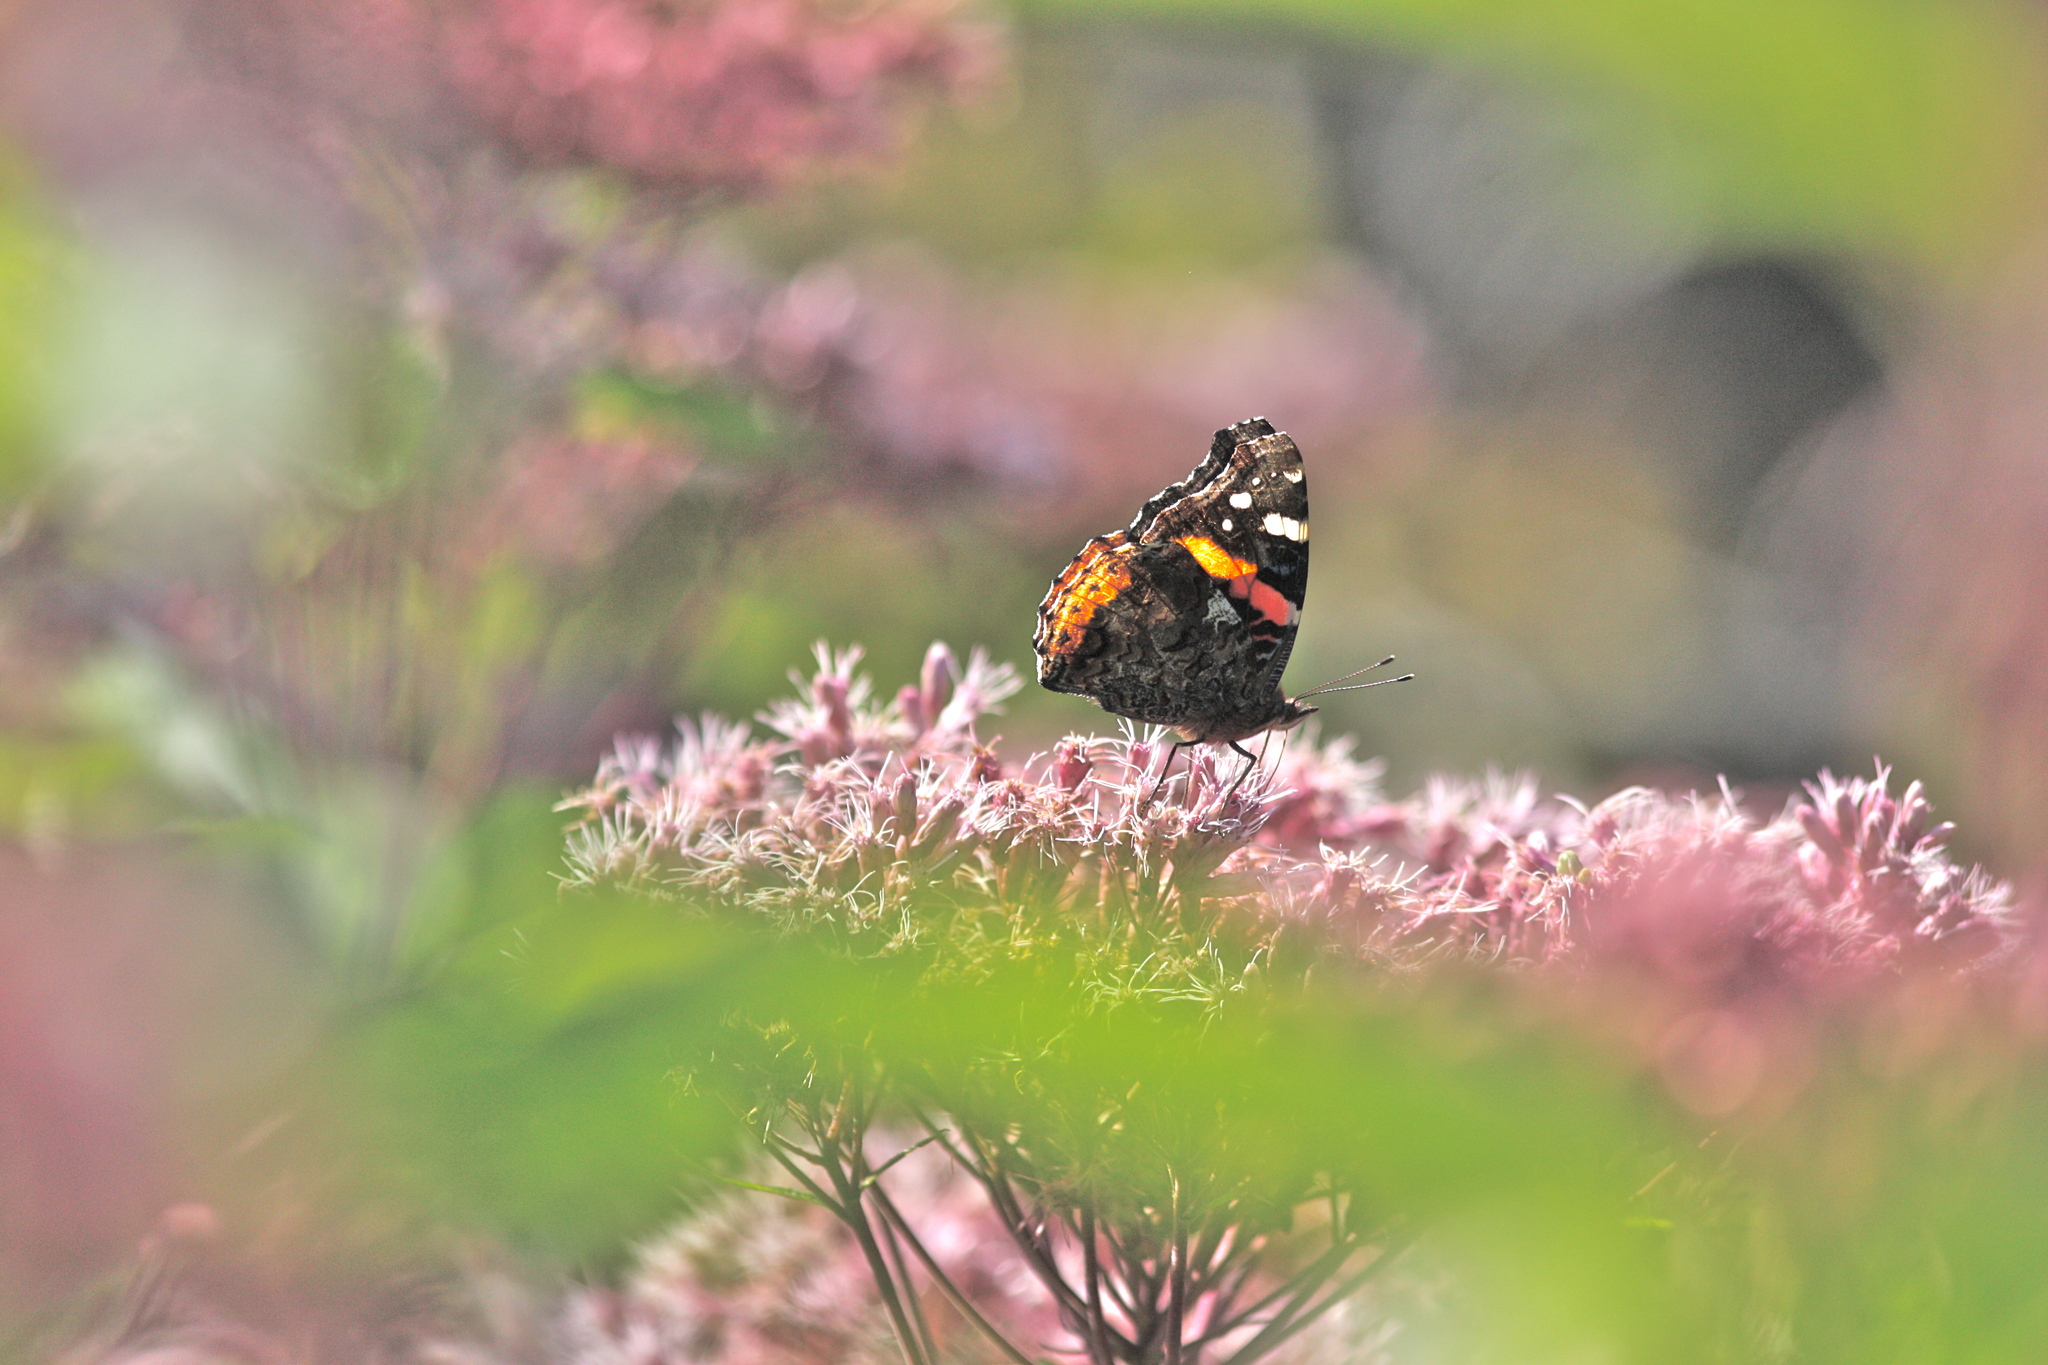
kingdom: Animalia
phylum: Arthropoda
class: Insecta
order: Lepidoptera
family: Nymphalidae
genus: Vanessa
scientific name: Vanessa atalanta
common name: Red admiral
